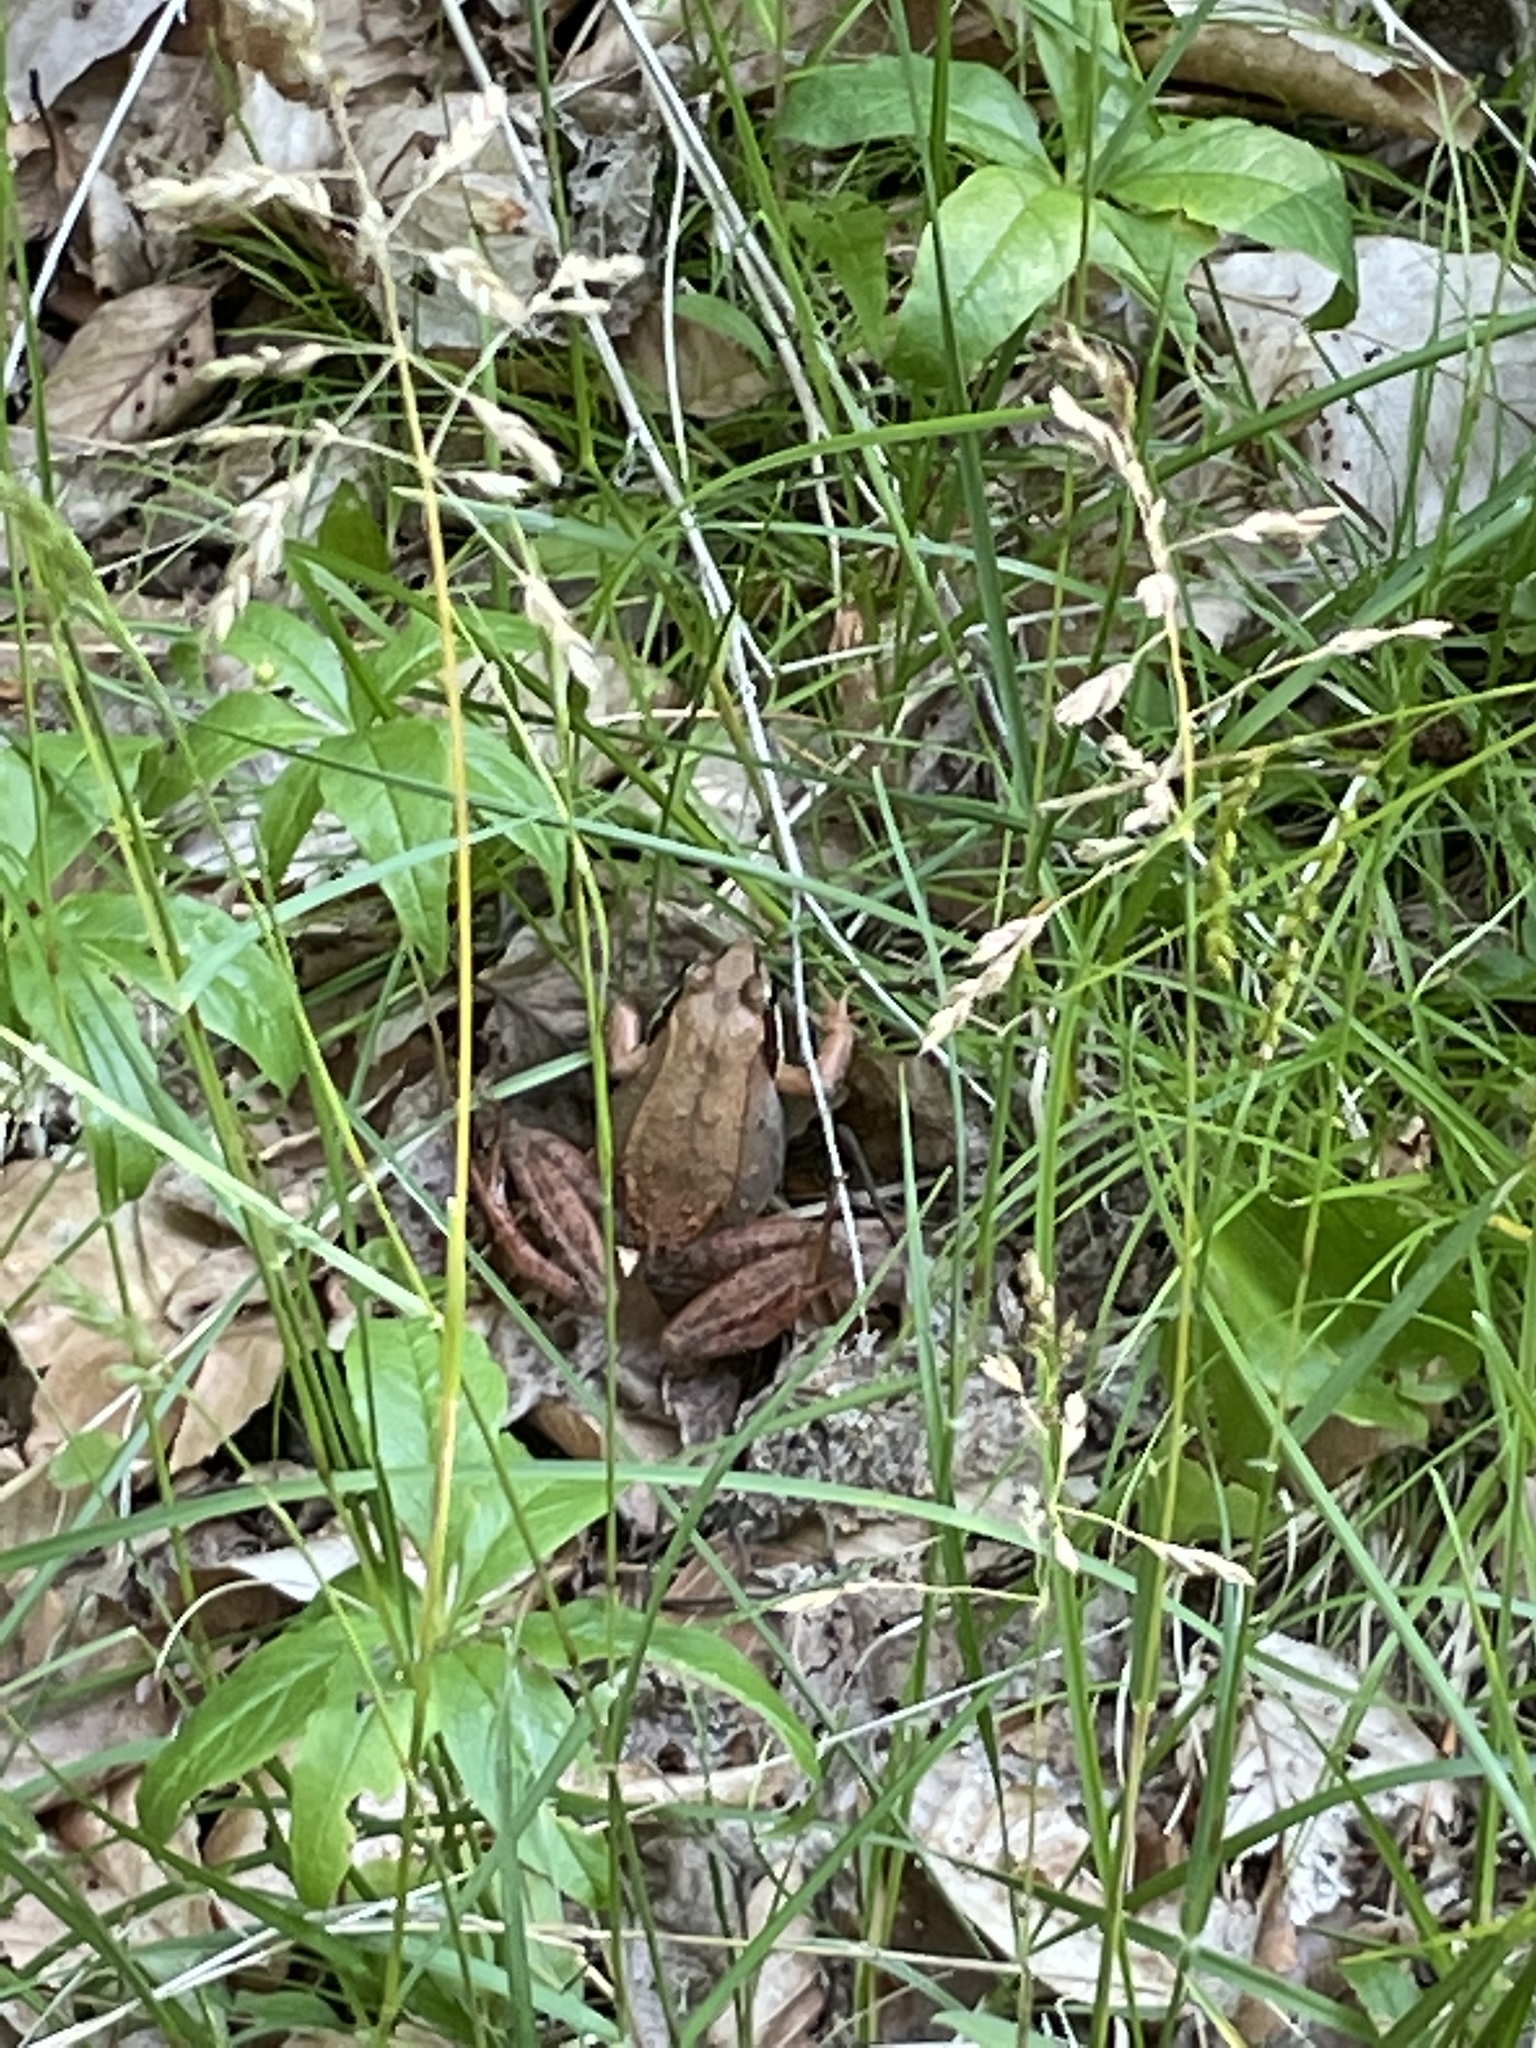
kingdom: Animalia
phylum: Chordata
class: Amphibia
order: Anura
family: Ranidae
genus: Lithobates
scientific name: Lithobates sylvaticus
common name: Wood frog
